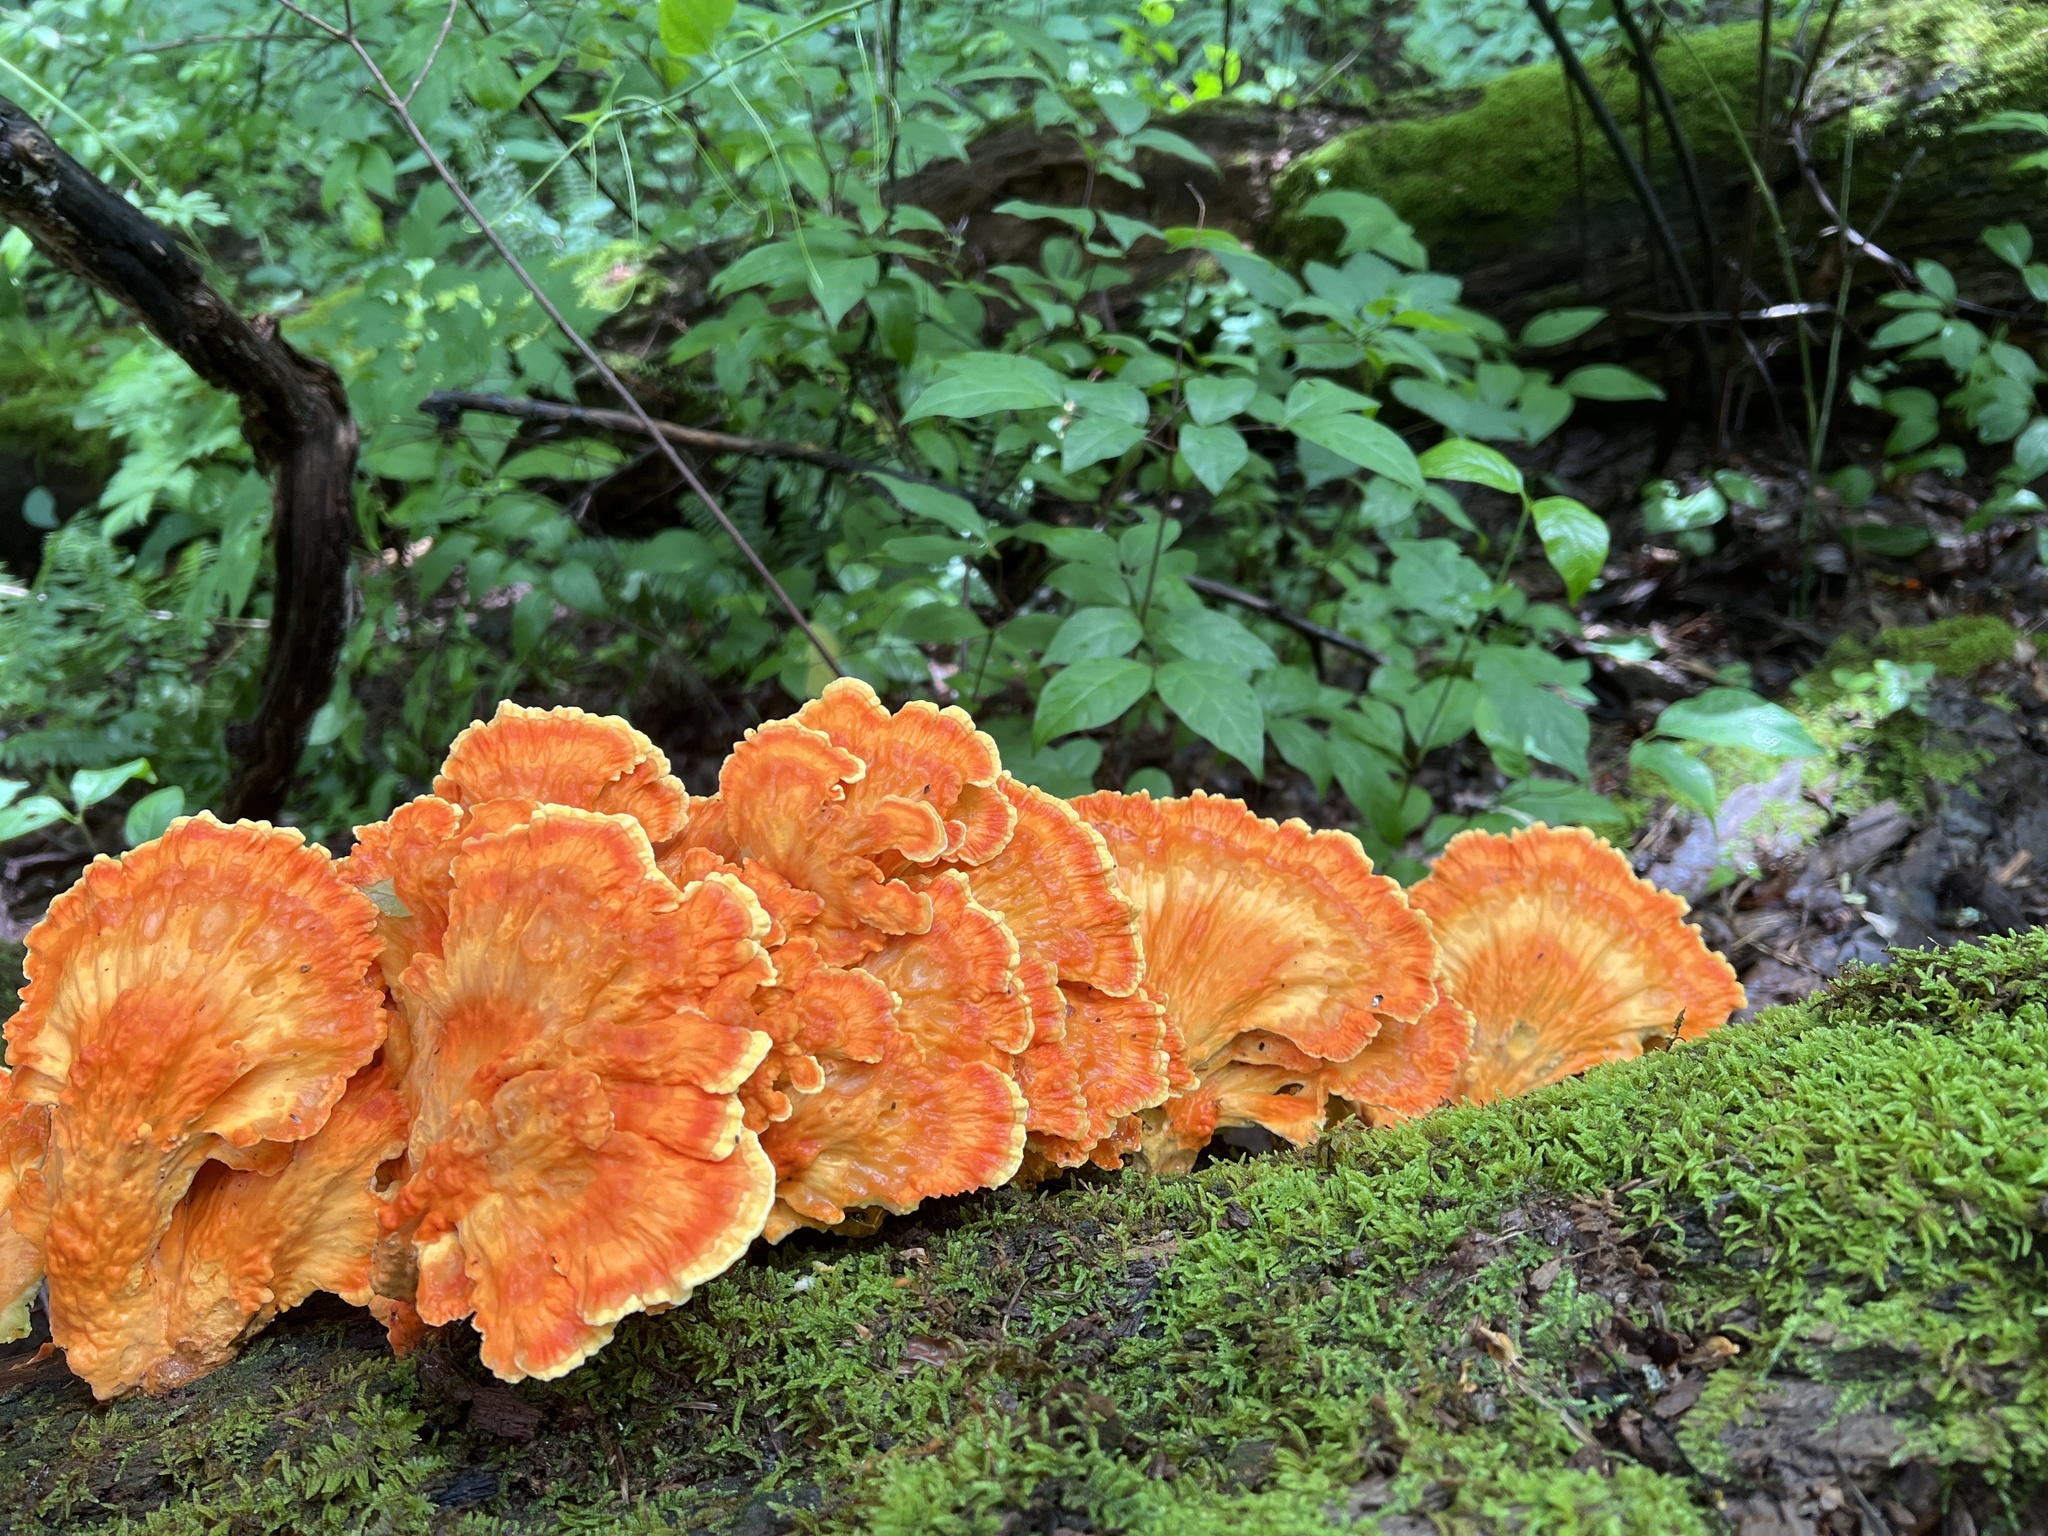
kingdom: Fungi
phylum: Basidiomycota
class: Agaricomycetes
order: Polyporales
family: Laetiporaceae
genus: Laetiporus
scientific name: Laetiporus sulphureus
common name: Chicken of the woods
